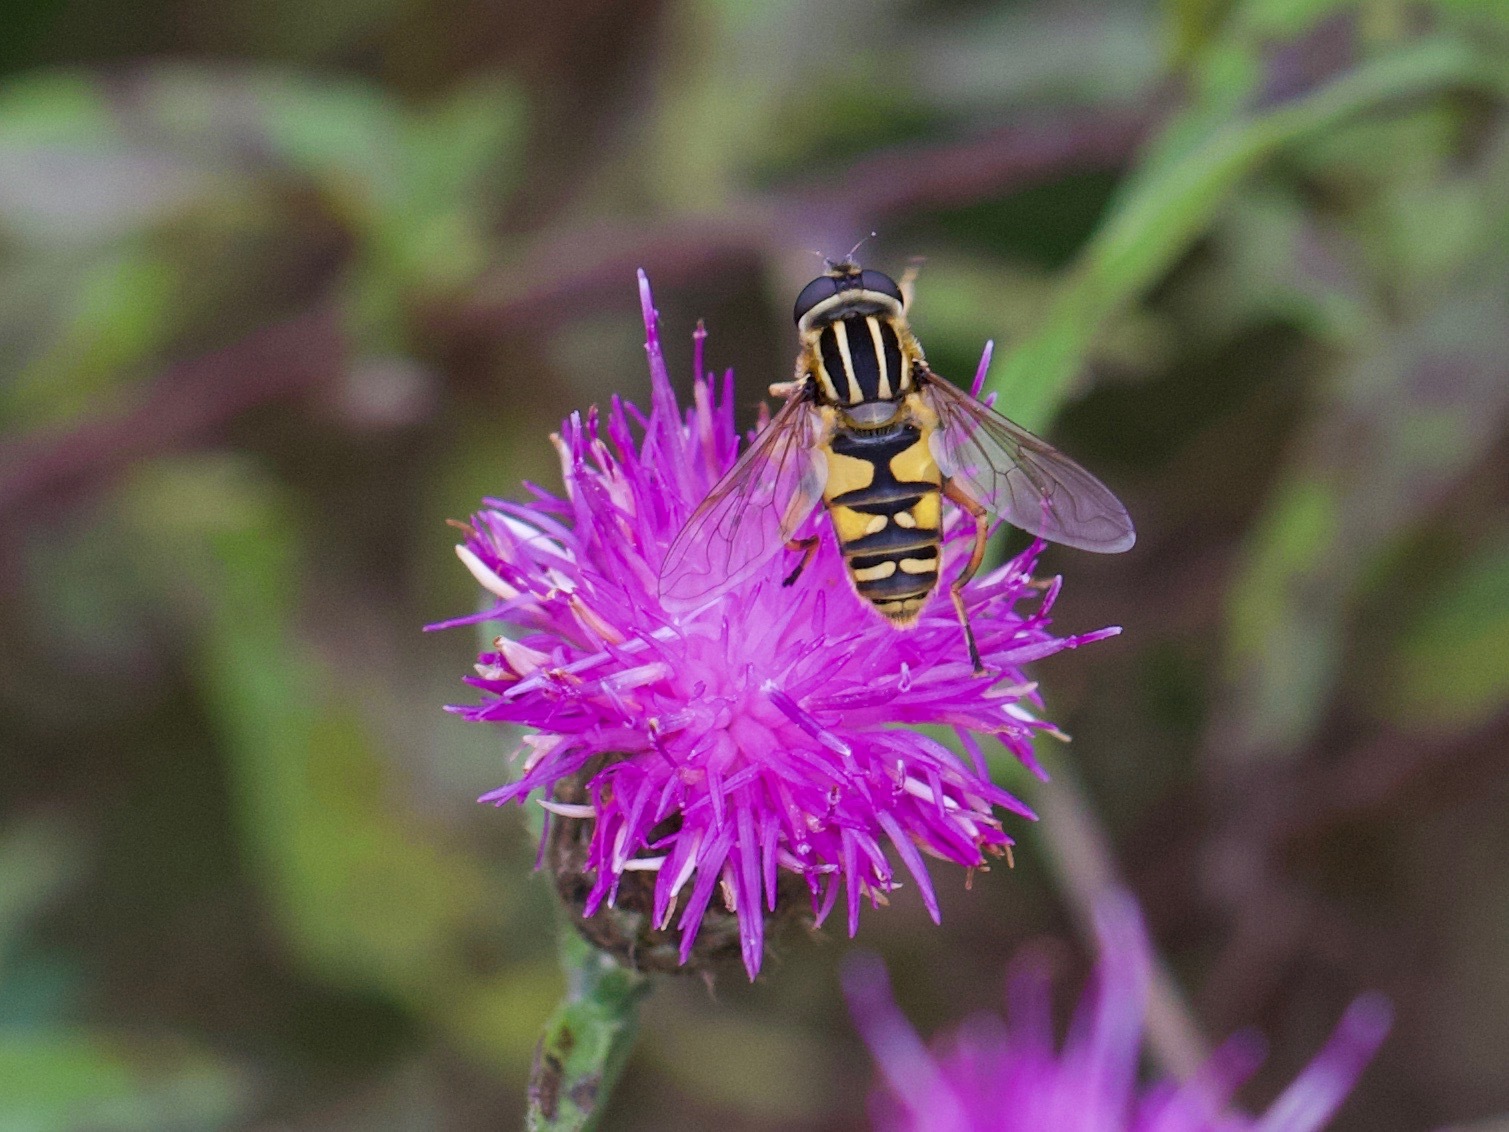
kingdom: Animalia
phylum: Arthropoda
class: Insecta
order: Diptera
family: Syrphidae
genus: Helophilus
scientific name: Helophilus pendulus
